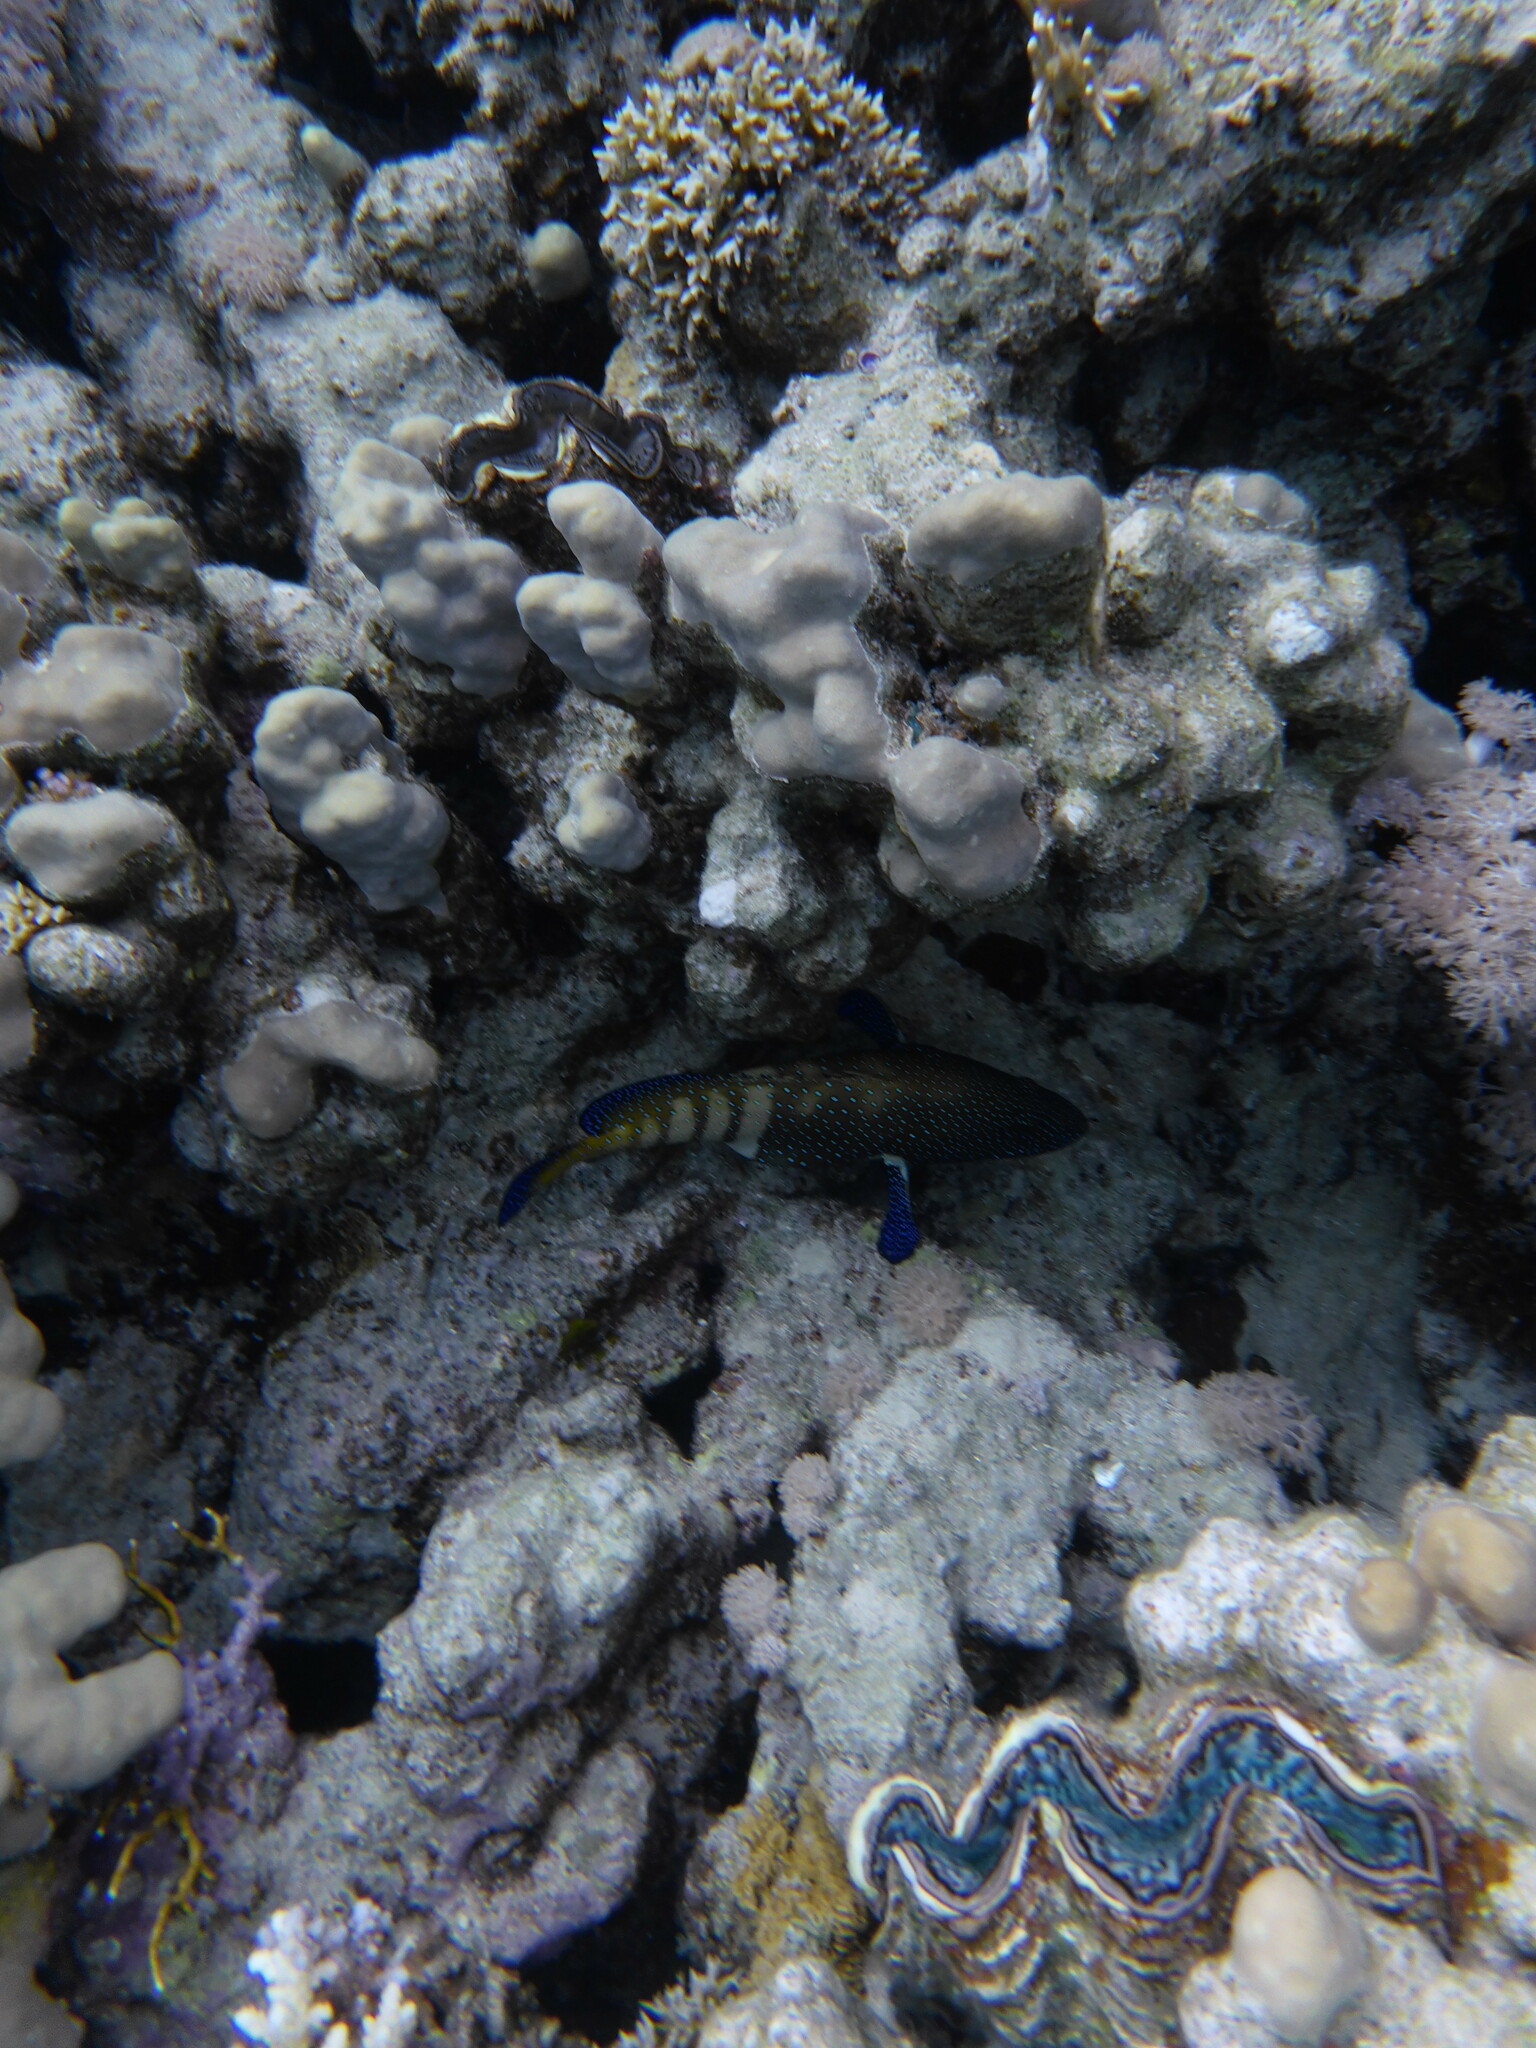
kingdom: Animalia
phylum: Chordata
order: Perciformes
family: Serranidae
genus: Cephalopholis
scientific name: Cephalopholis argus
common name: Peacock grouper
